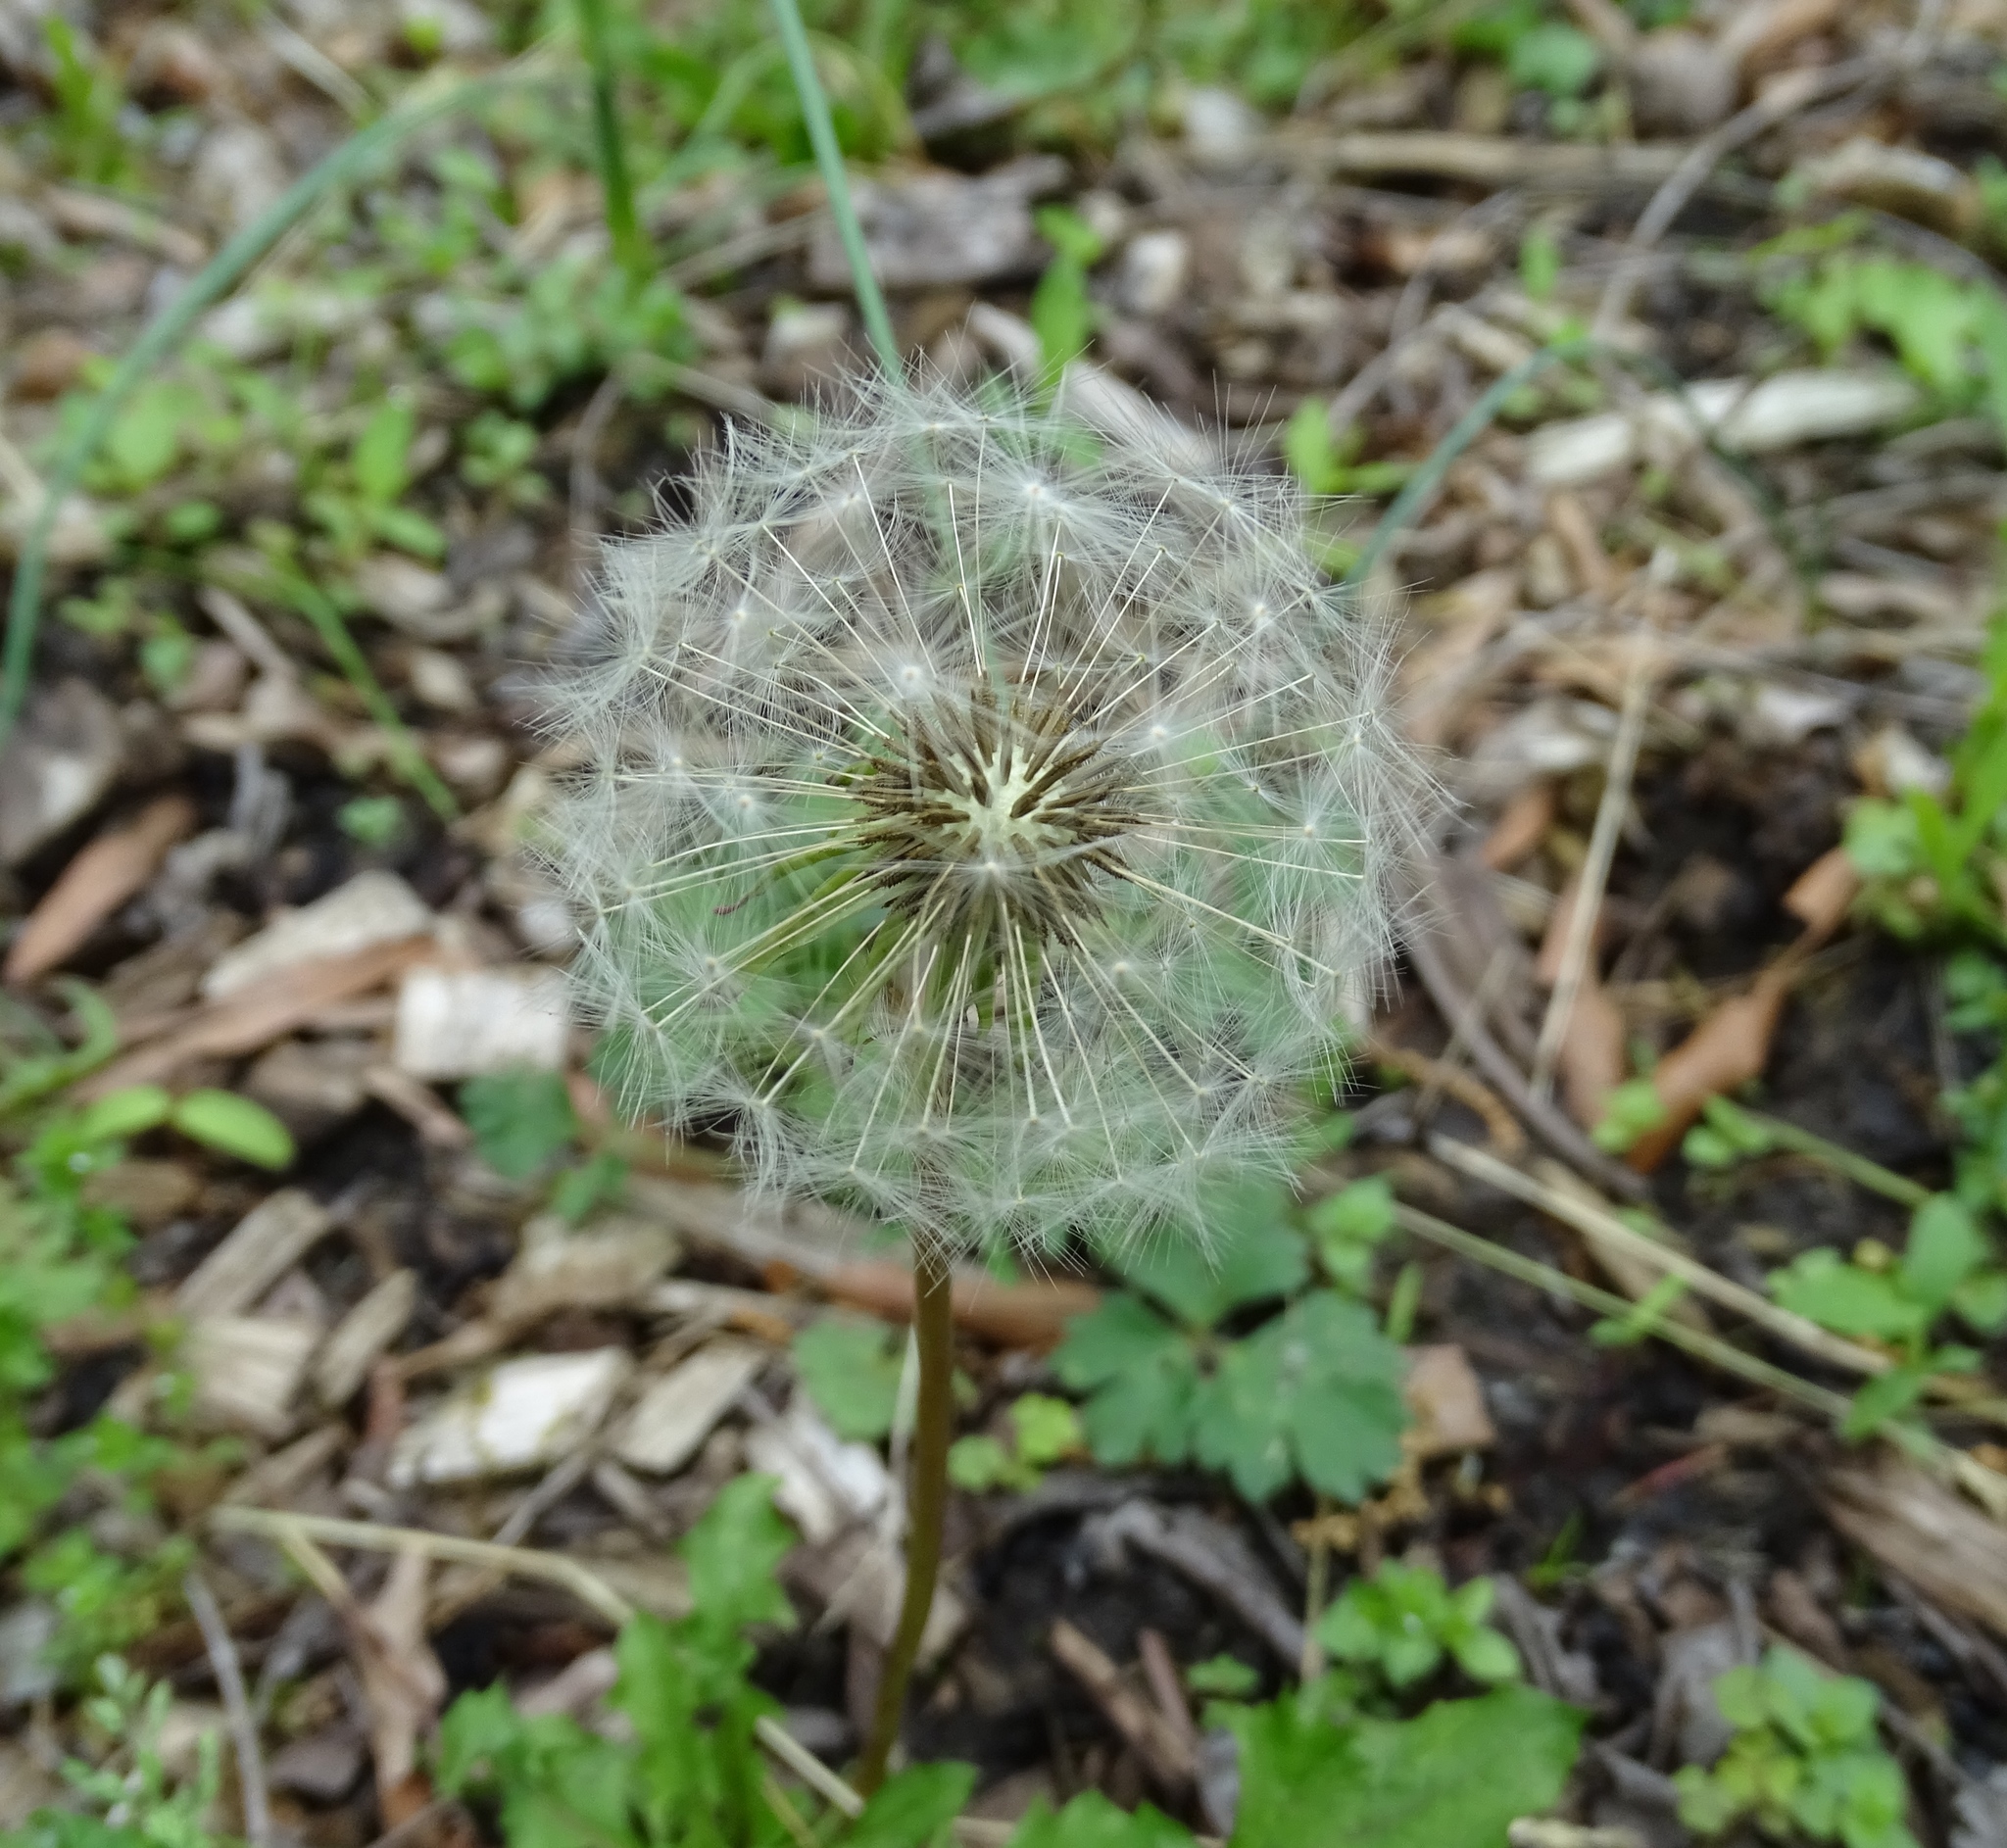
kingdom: Plantae
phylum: Tracheophyta
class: Magnoliopsida
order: Asterales
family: Asteraceae
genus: Taraxacum
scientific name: Taraxacum officinale
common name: Common dandelion
